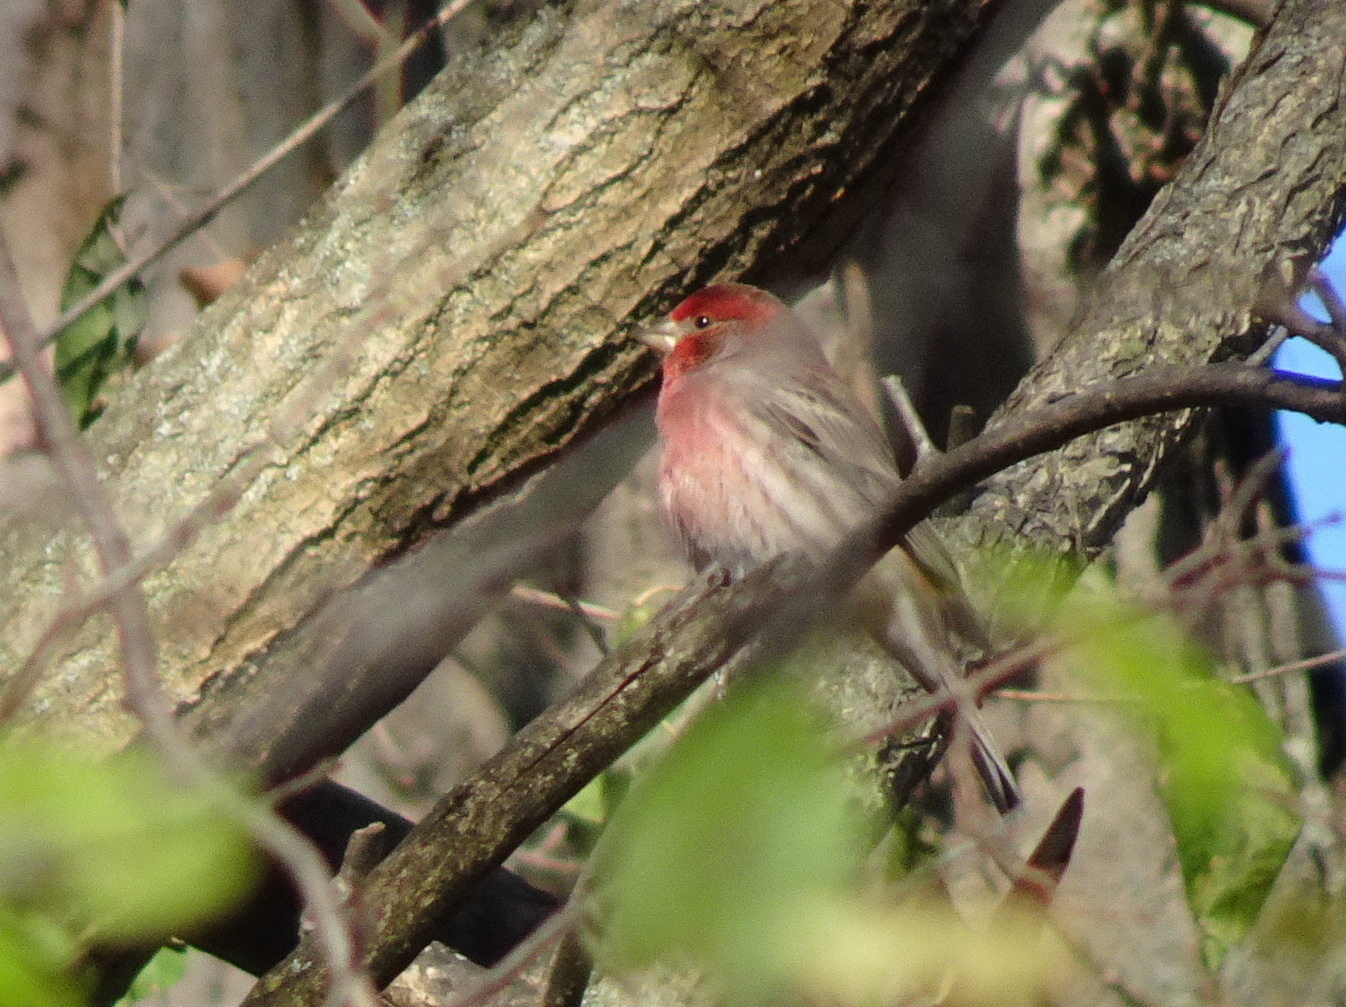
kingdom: Animalia
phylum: Chordata
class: Aves
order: Passeriformes
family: Fringillidae
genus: Haemorhous
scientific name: Haemorhous mexicanus
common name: House finch
